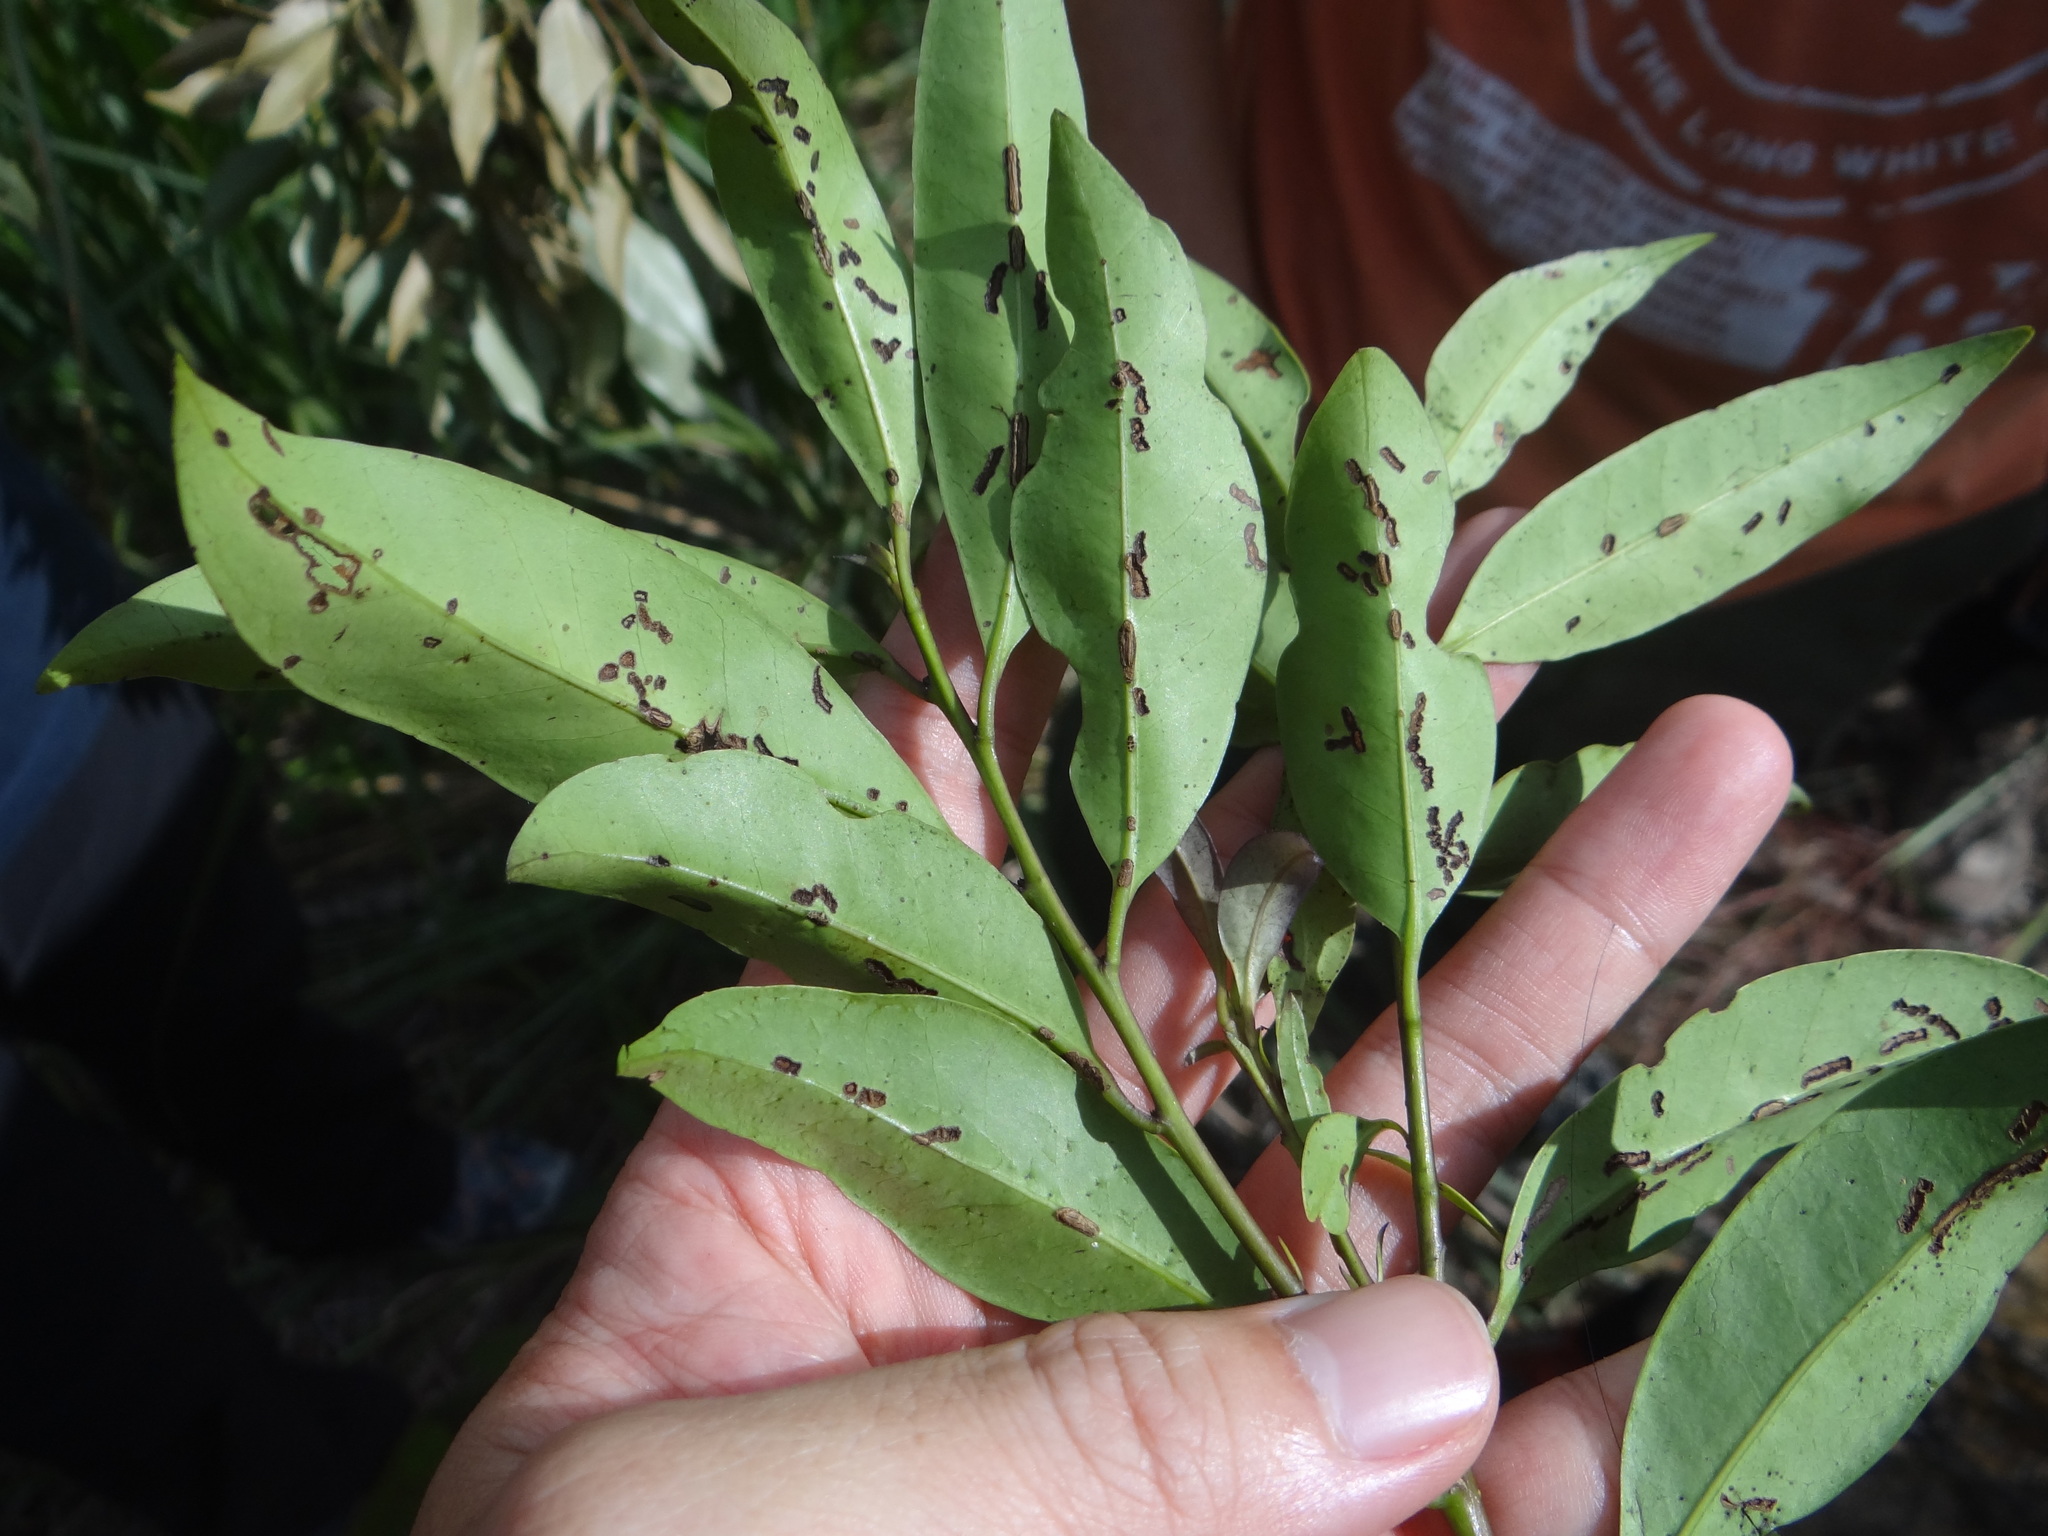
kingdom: Plantae
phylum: Tracheophyta
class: Magnoliopsida
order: Aquifoliales
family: Aquifoliaceae
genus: Ilex
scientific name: Ilex lonicerifolia
